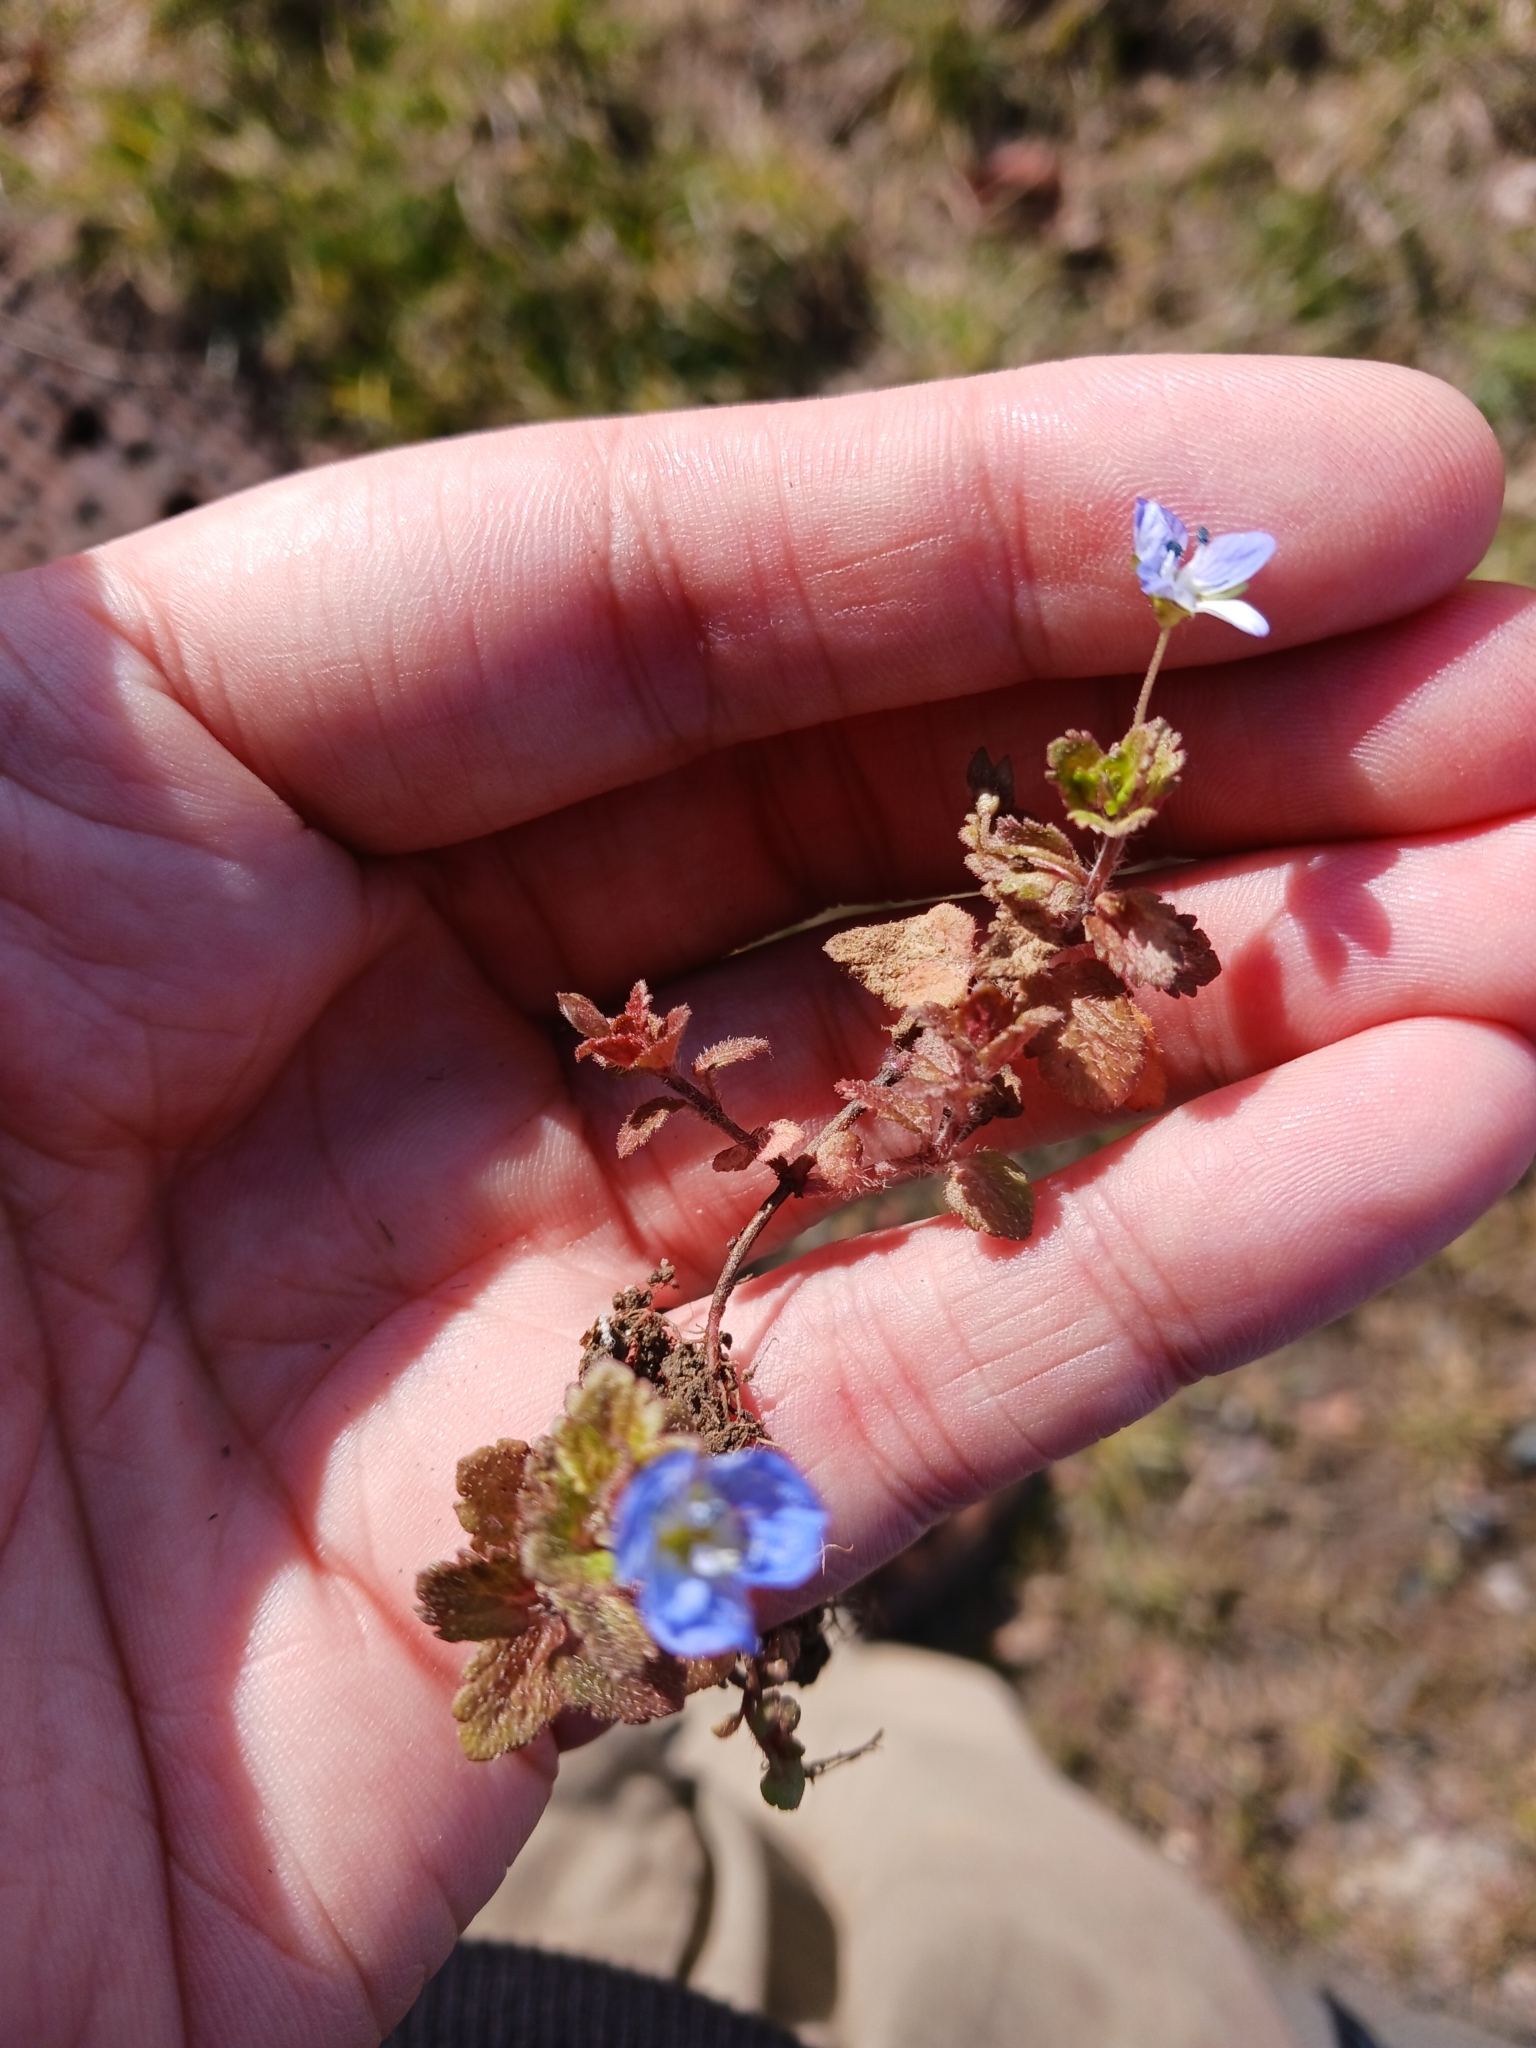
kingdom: Plantae
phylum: Tracheophyta
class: Magnoliopsida
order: Lamiales
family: Plantaginaceae
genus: Veronica
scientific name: Veronica persica
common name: Common field-speedwell
